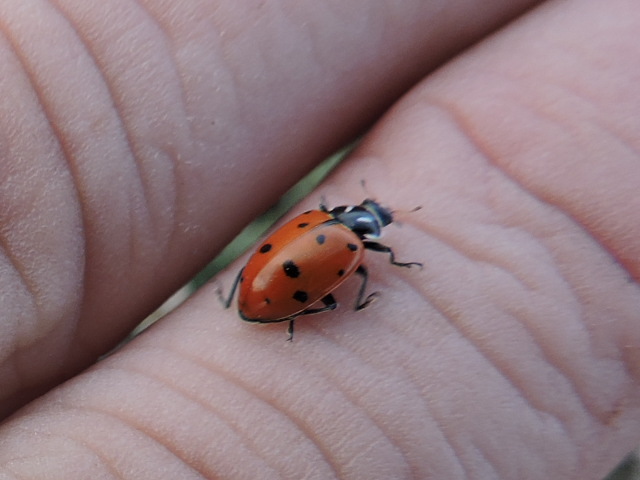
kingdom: Animalia
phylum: Arthropoda
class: Insecta
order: Coleoptera
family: Coccinellidae
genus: Hippodamia
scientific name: Hippodamia convergens
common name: Convergent lady beetle
